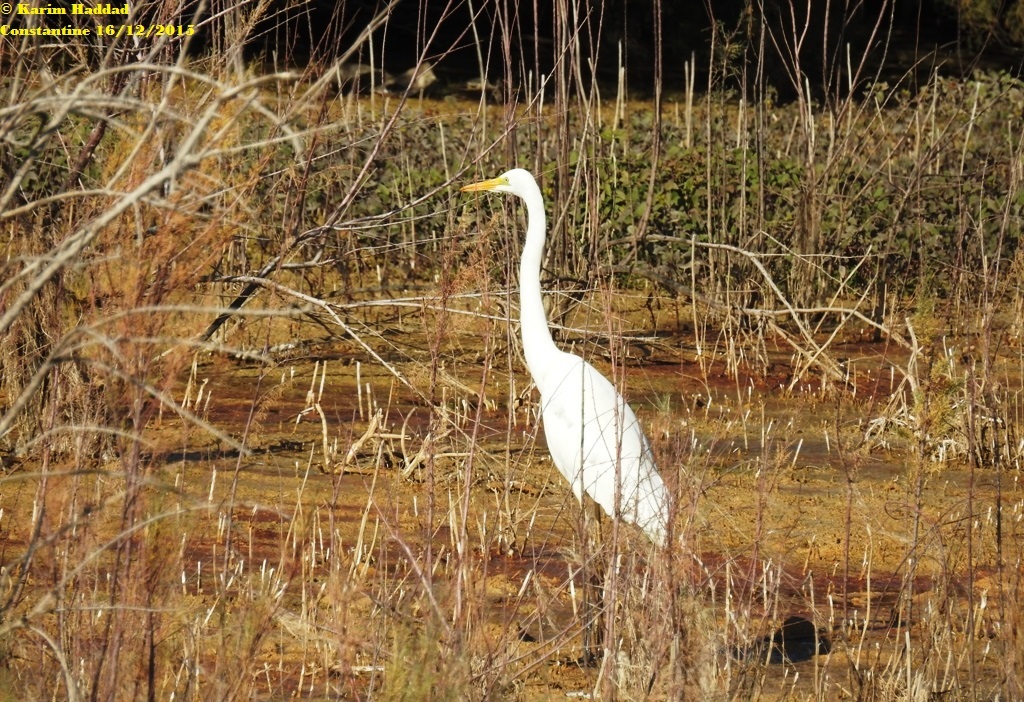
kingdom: Animalia
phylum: Chordata
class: Aves
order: Pelecaniformes
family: Ardeidae
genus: Ardea
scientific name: Ardea alba
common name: Great egret
